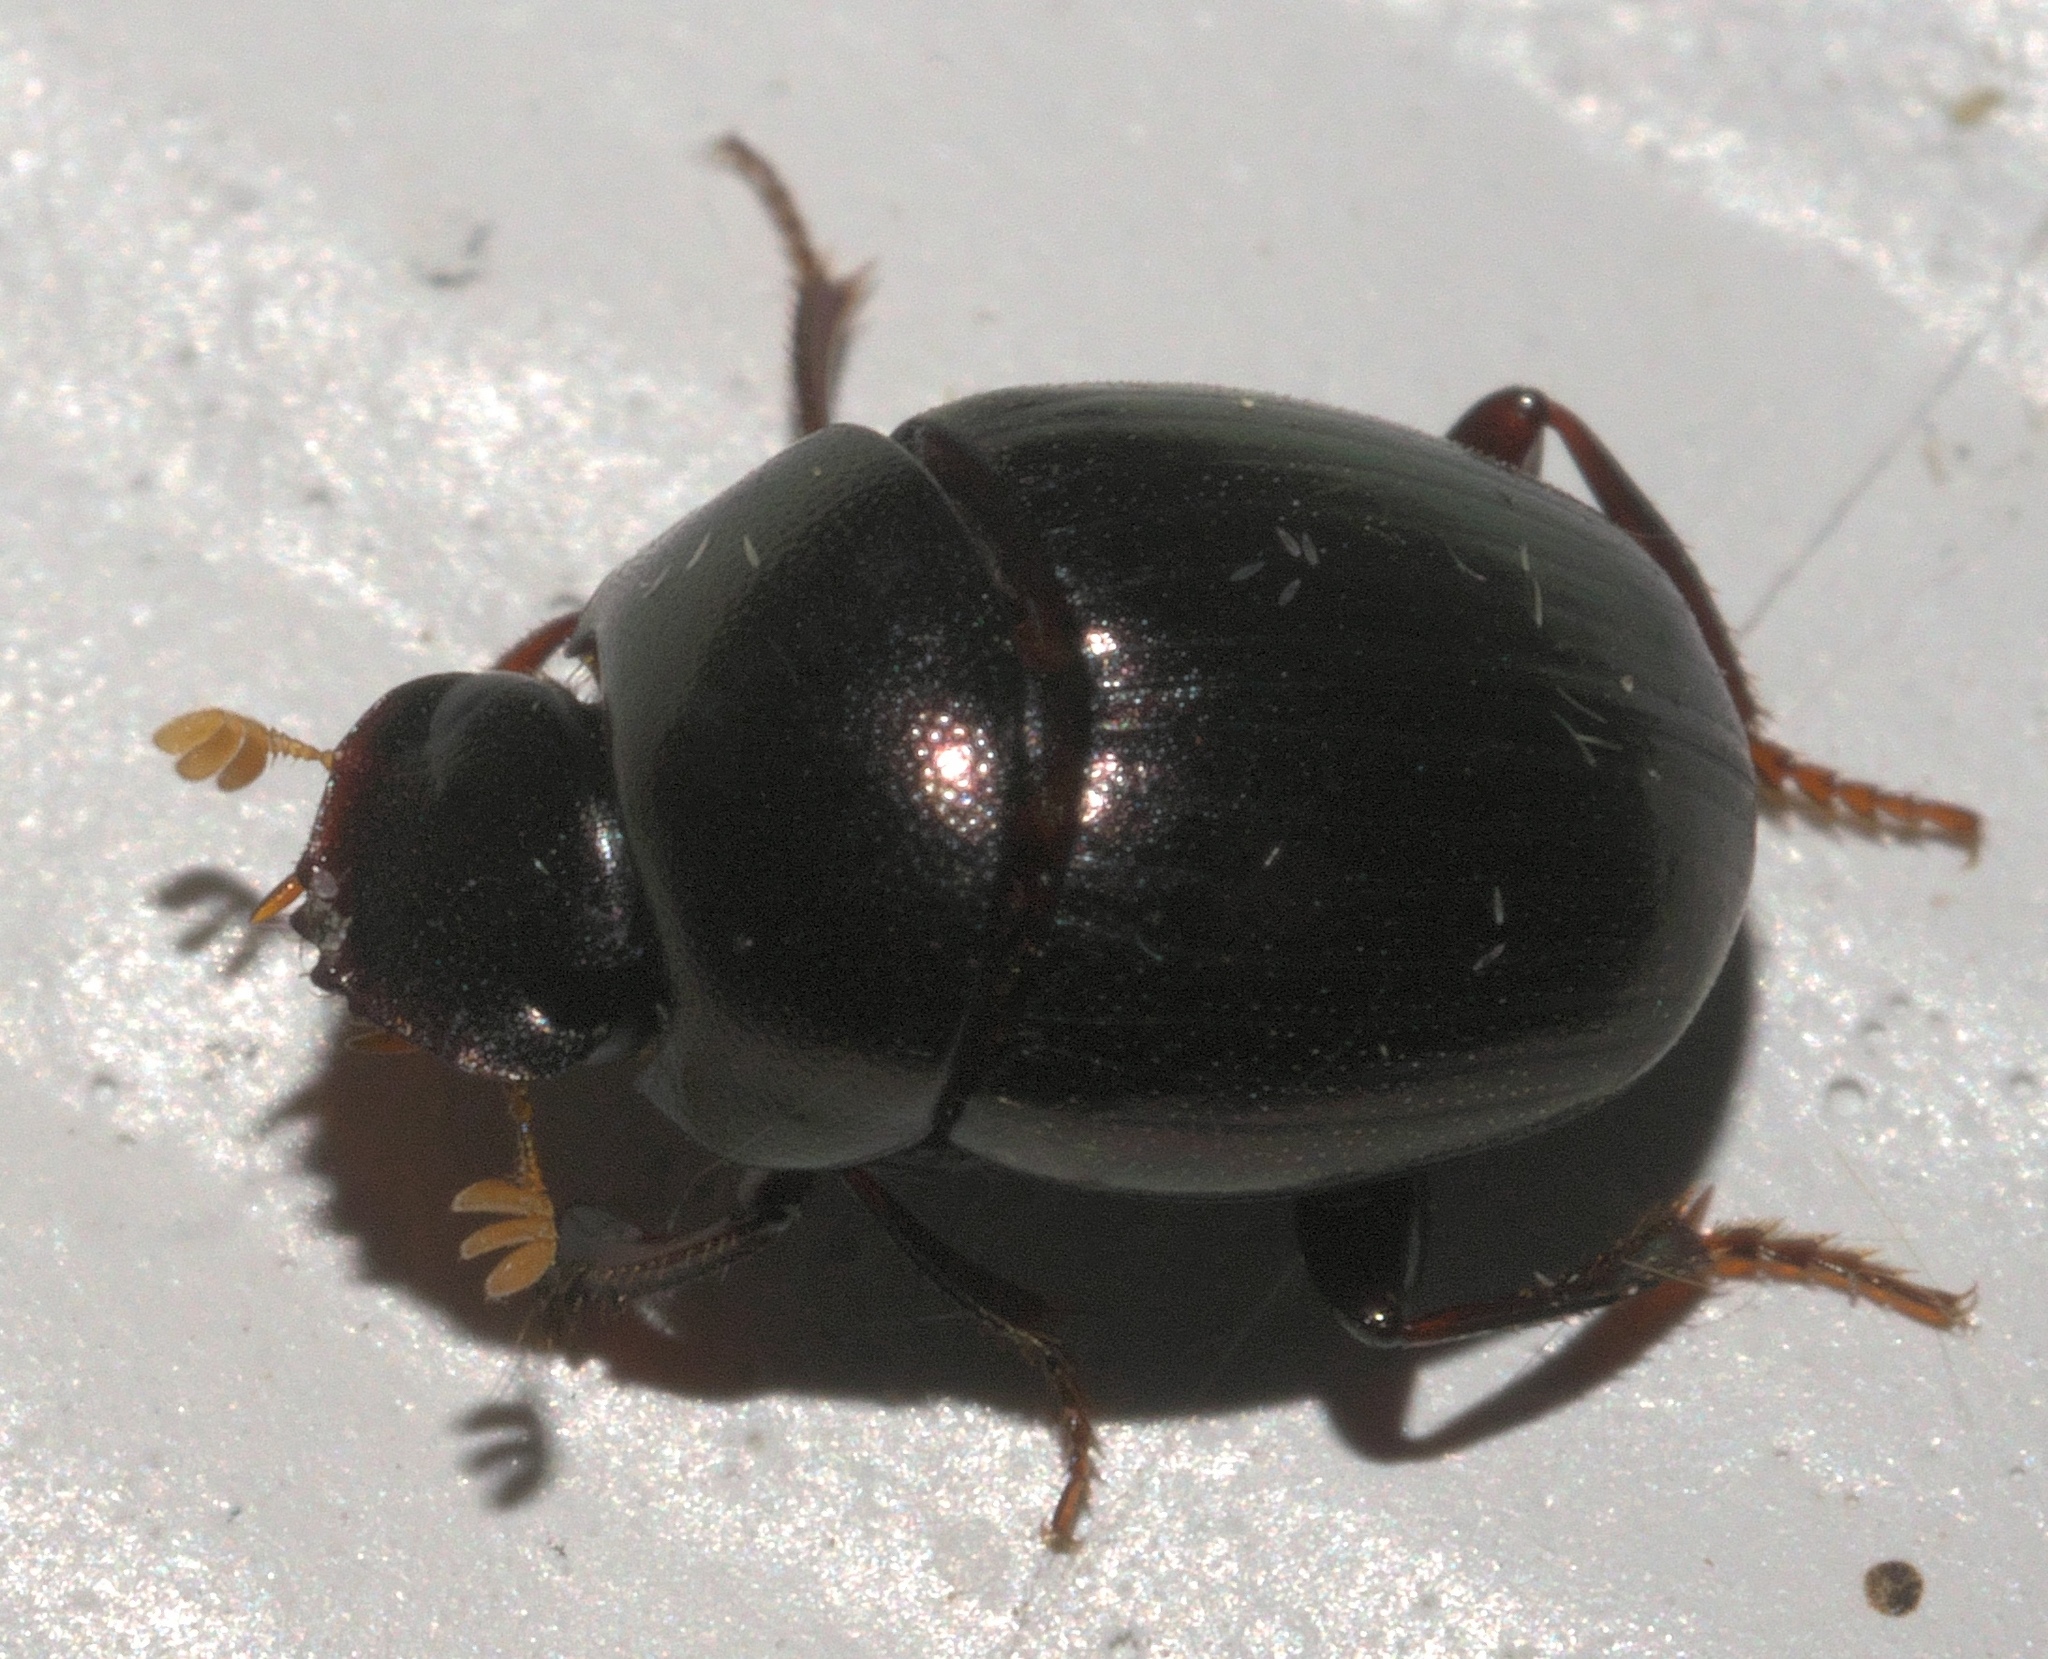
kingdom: Animalia
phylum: Arthropoda
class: Insecta
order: Coleoptera
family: Scarabaeidae
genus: Pseudocanthon
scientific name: Pseudocanthon perplexus
